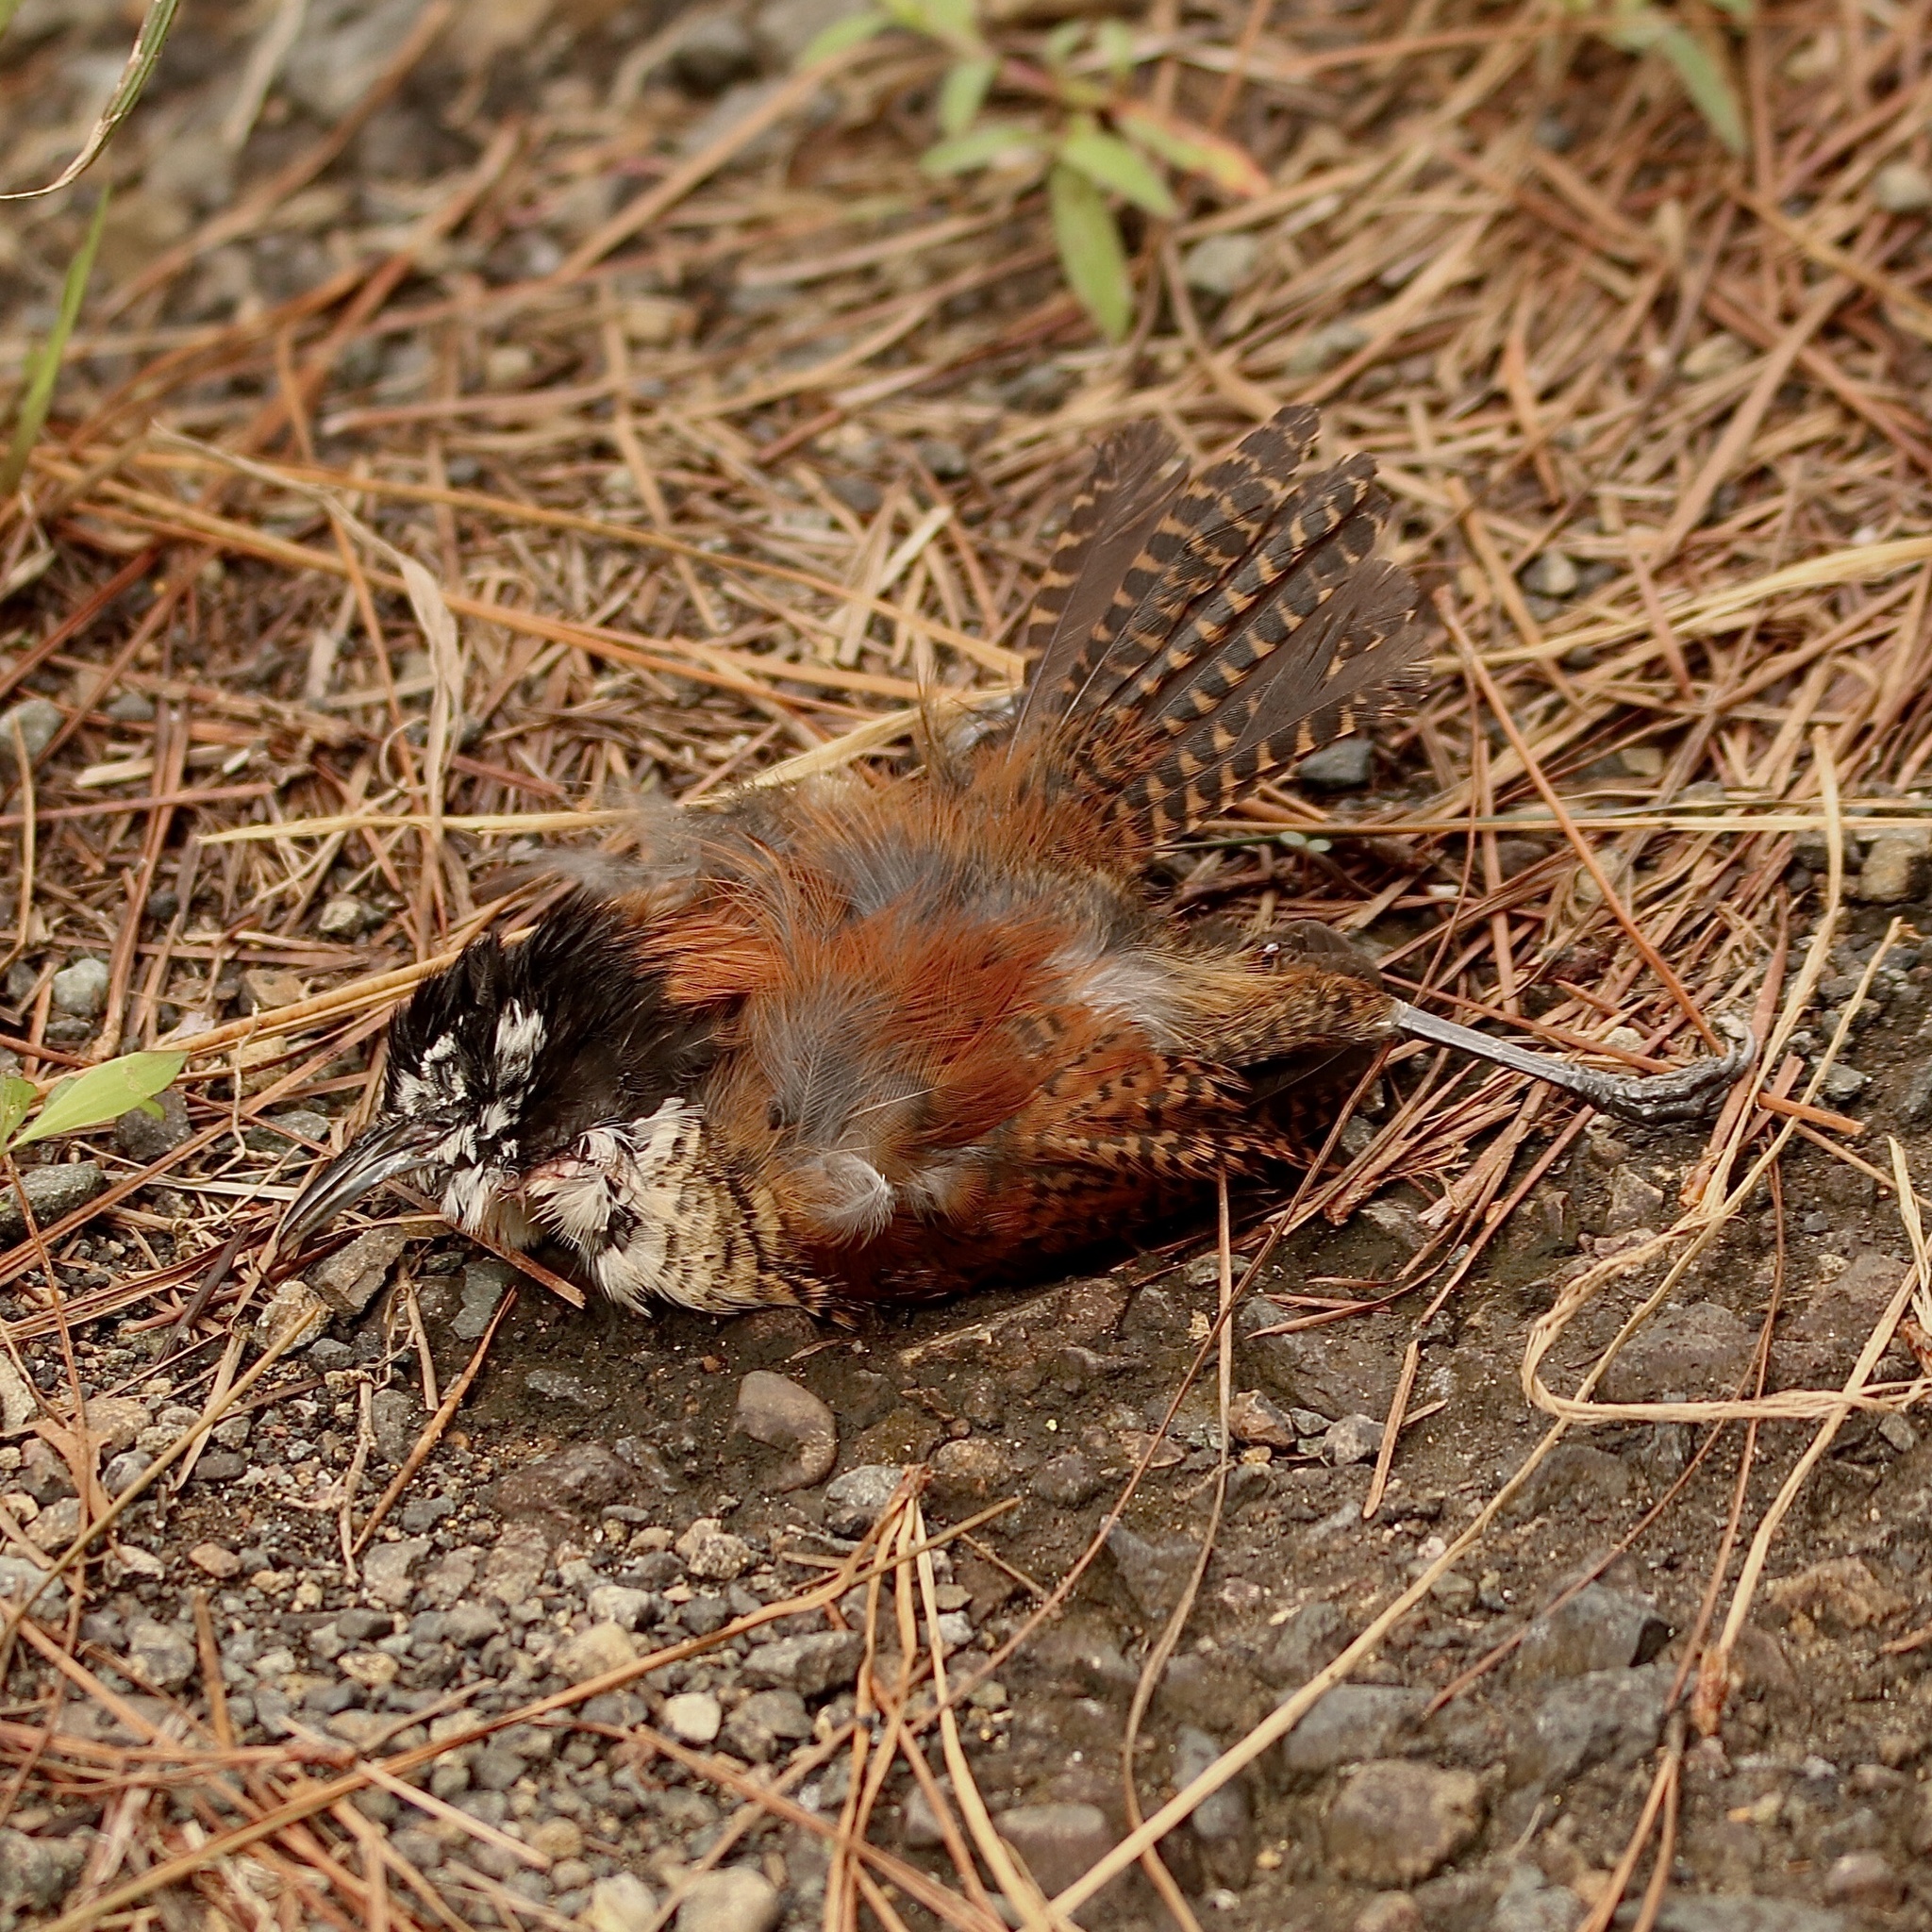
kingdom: Animalia
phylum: Chordata
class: Aves
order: Passeriformes
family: Troglodytidae
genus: Cantorchilus
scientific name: Cantorchilus nigricapillus
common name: Bay wren
